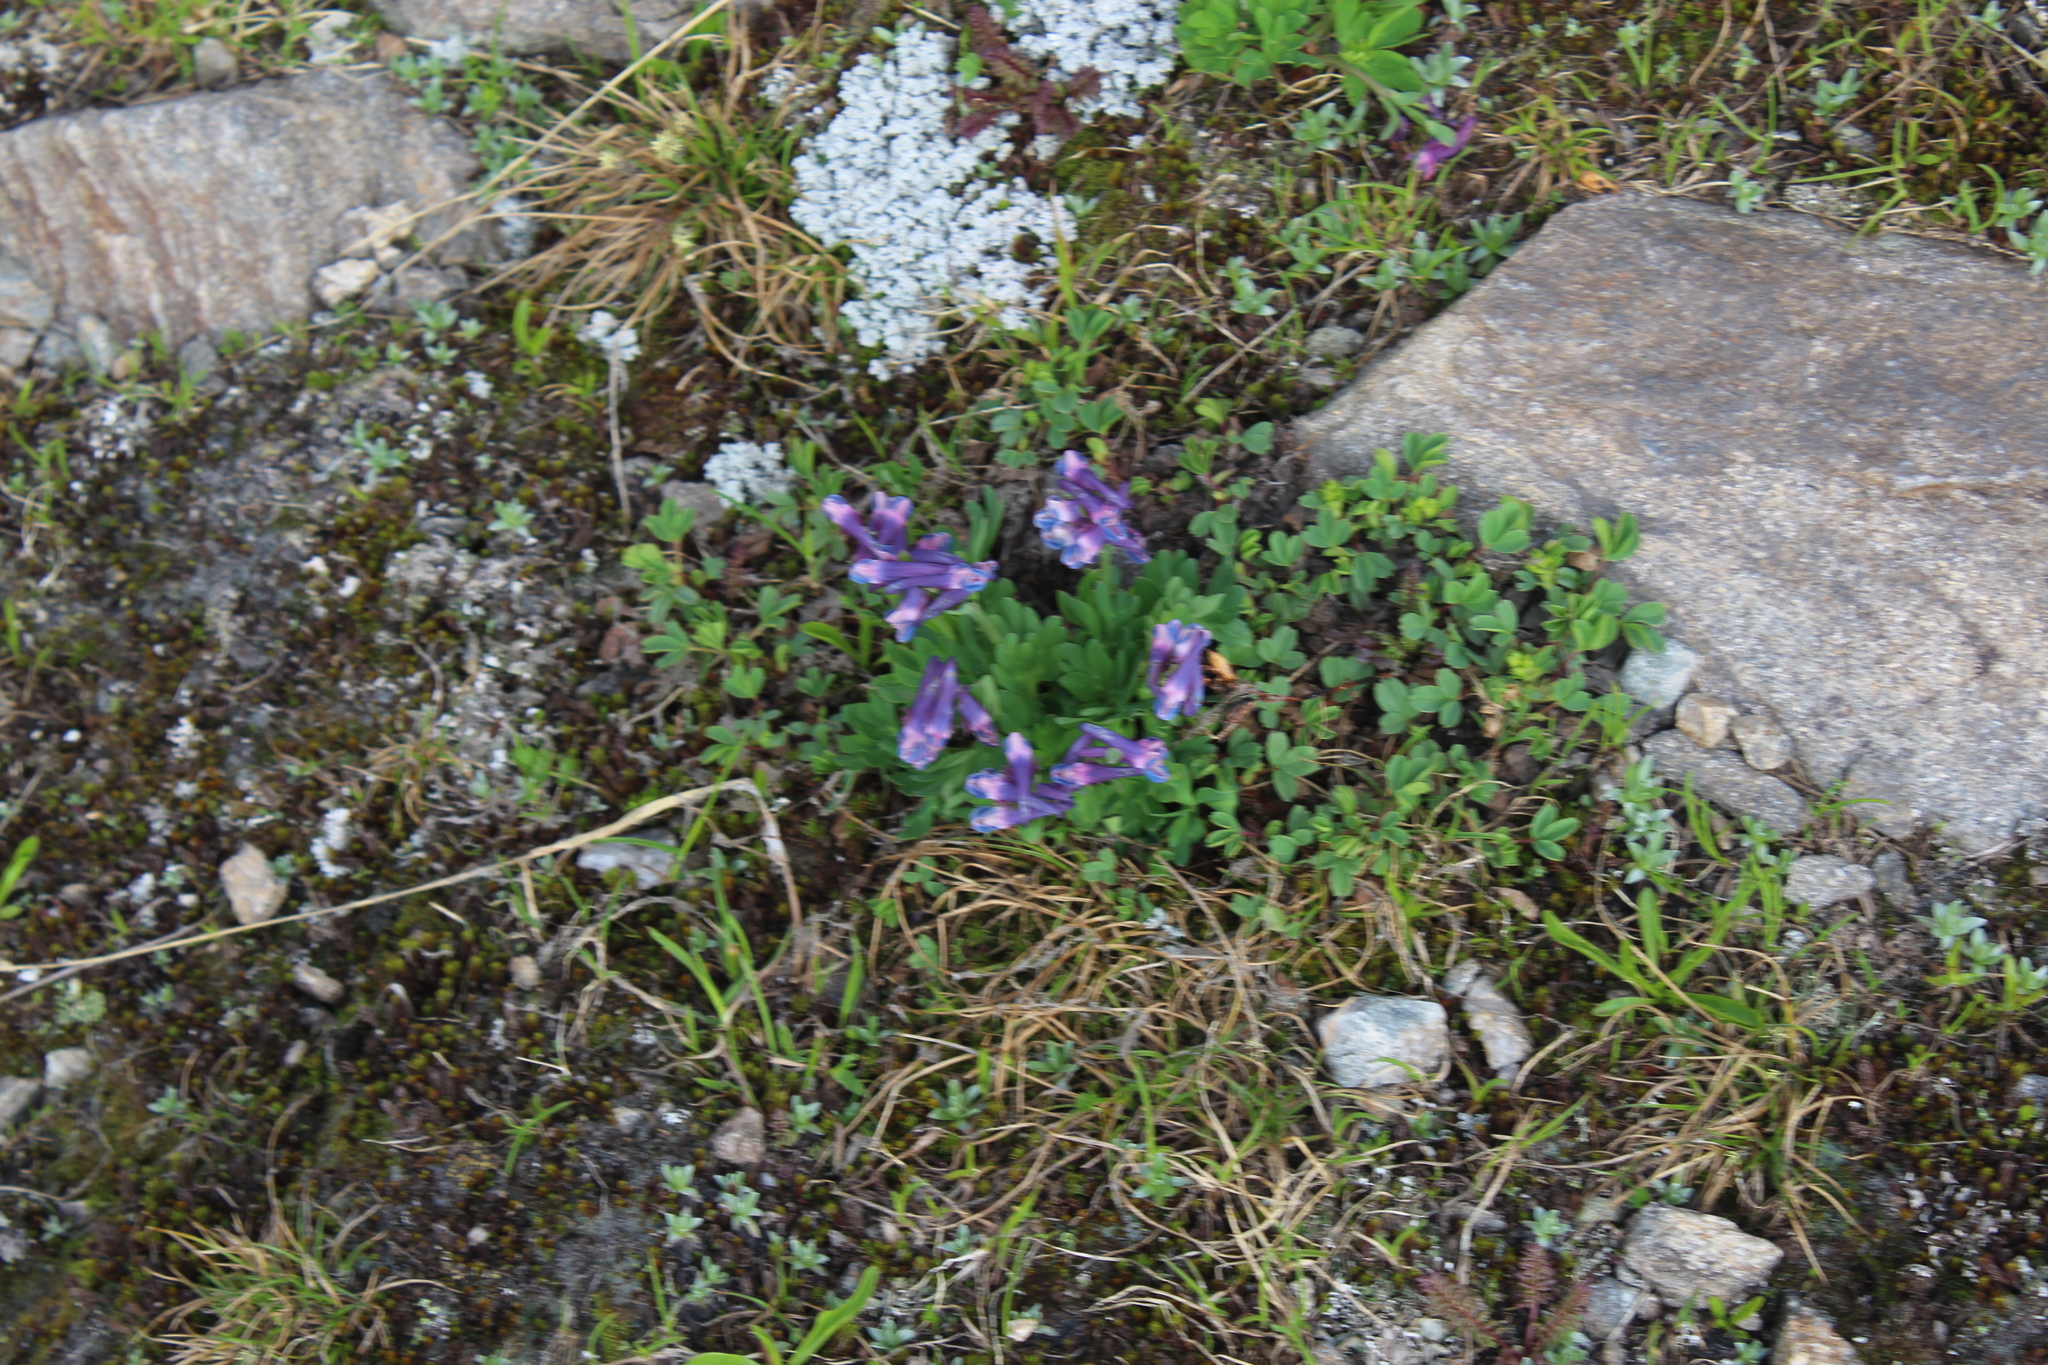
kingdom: Plantae
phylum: Tracheophyta
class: Magnoliopsida
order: Ranunculales
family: Papaveraceae
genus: Corydalis
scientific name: Corydalis conorhiza
